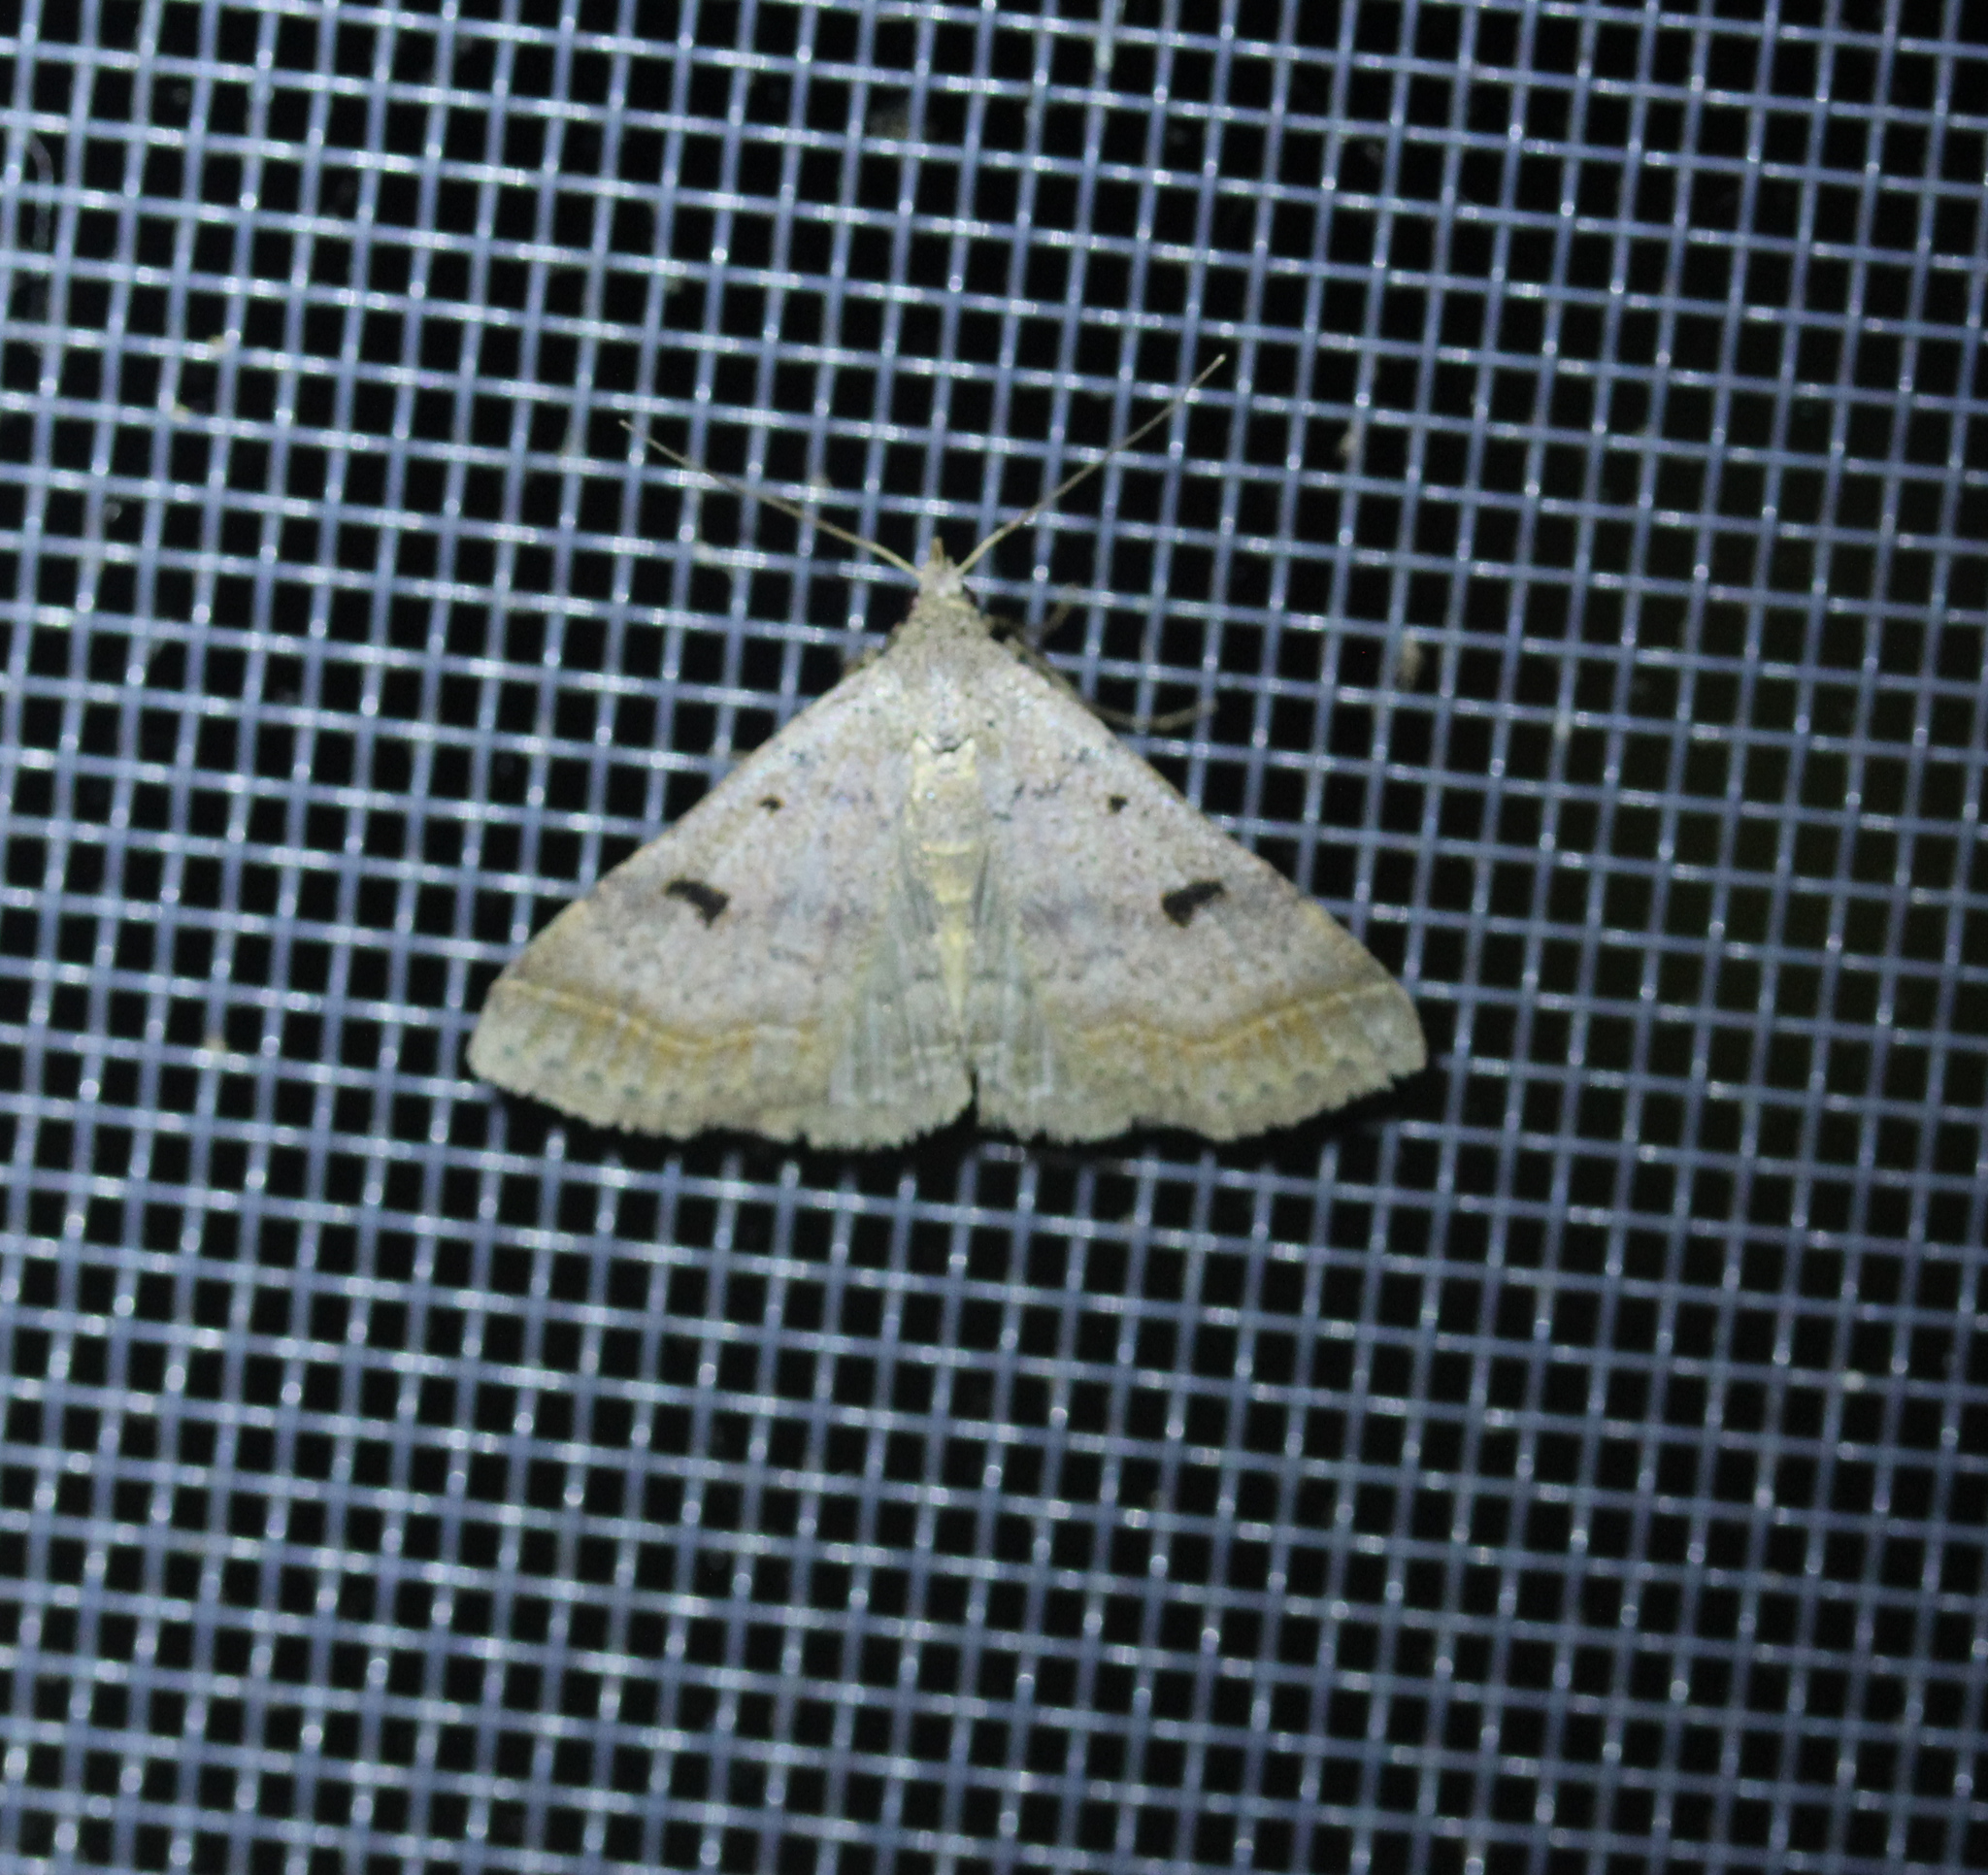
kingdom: Animalia
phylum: Arthropoda
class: Insecta
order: Lepidoptera
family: Erebidae
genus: Bleptina
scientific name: Bleptina caradrinalis
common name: Bent-winged owlet
